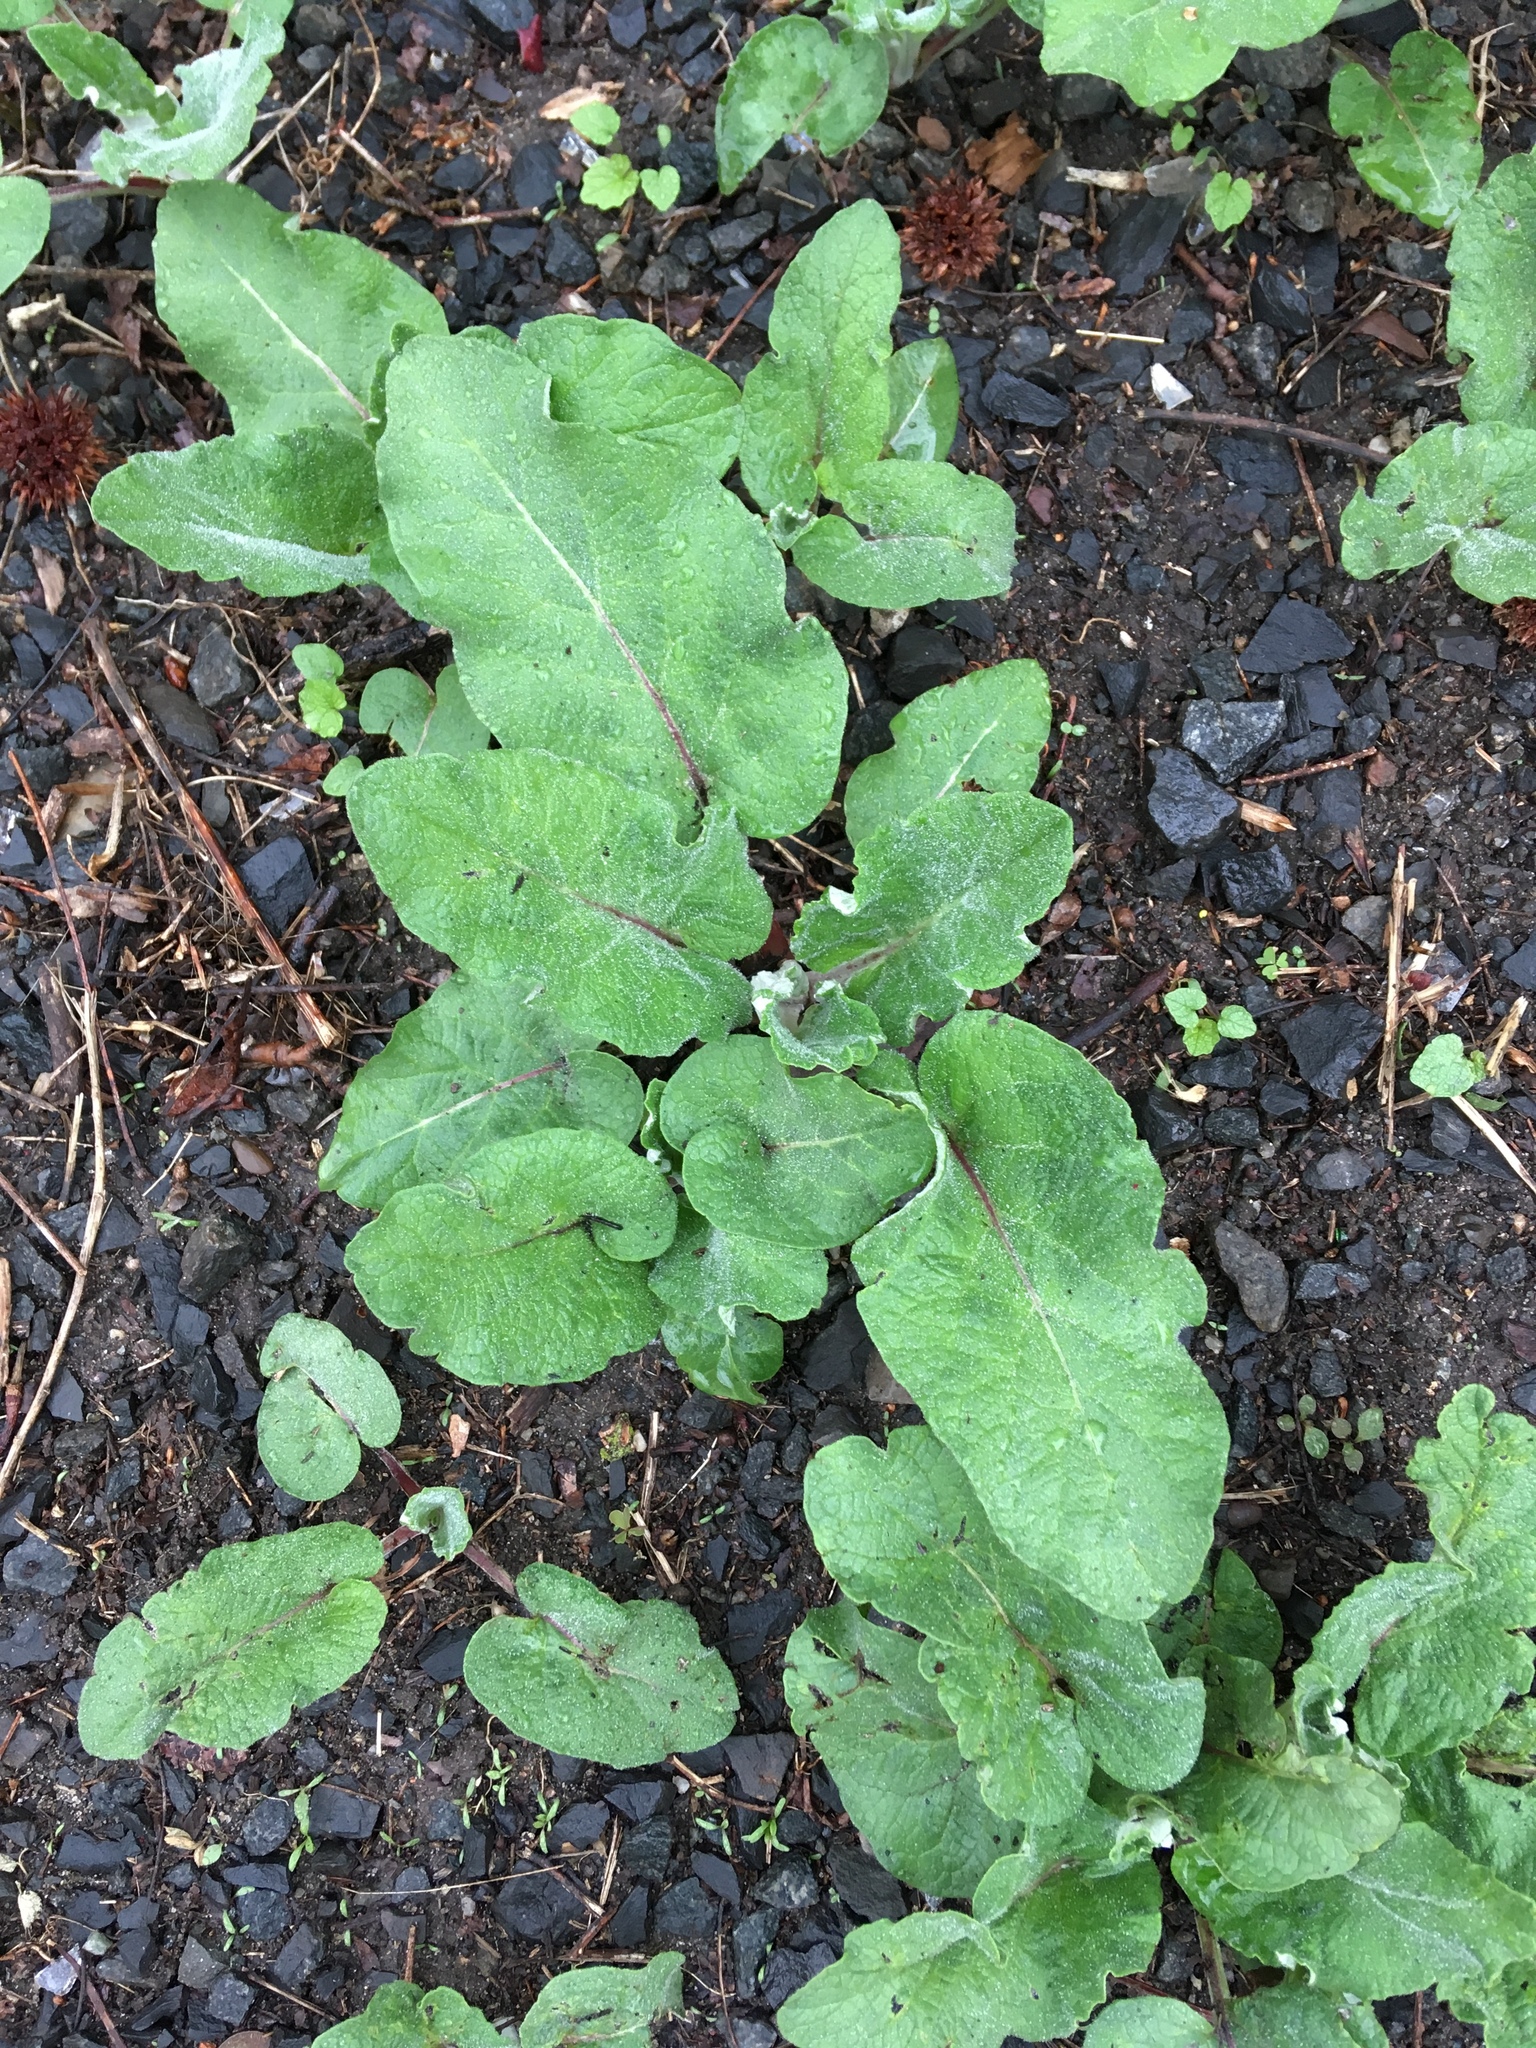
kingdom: Plantae
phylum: Tracheophyta
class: Magnoliopsida
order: Asterales
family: Asteraceae
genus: Arctium
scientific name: Arctium
